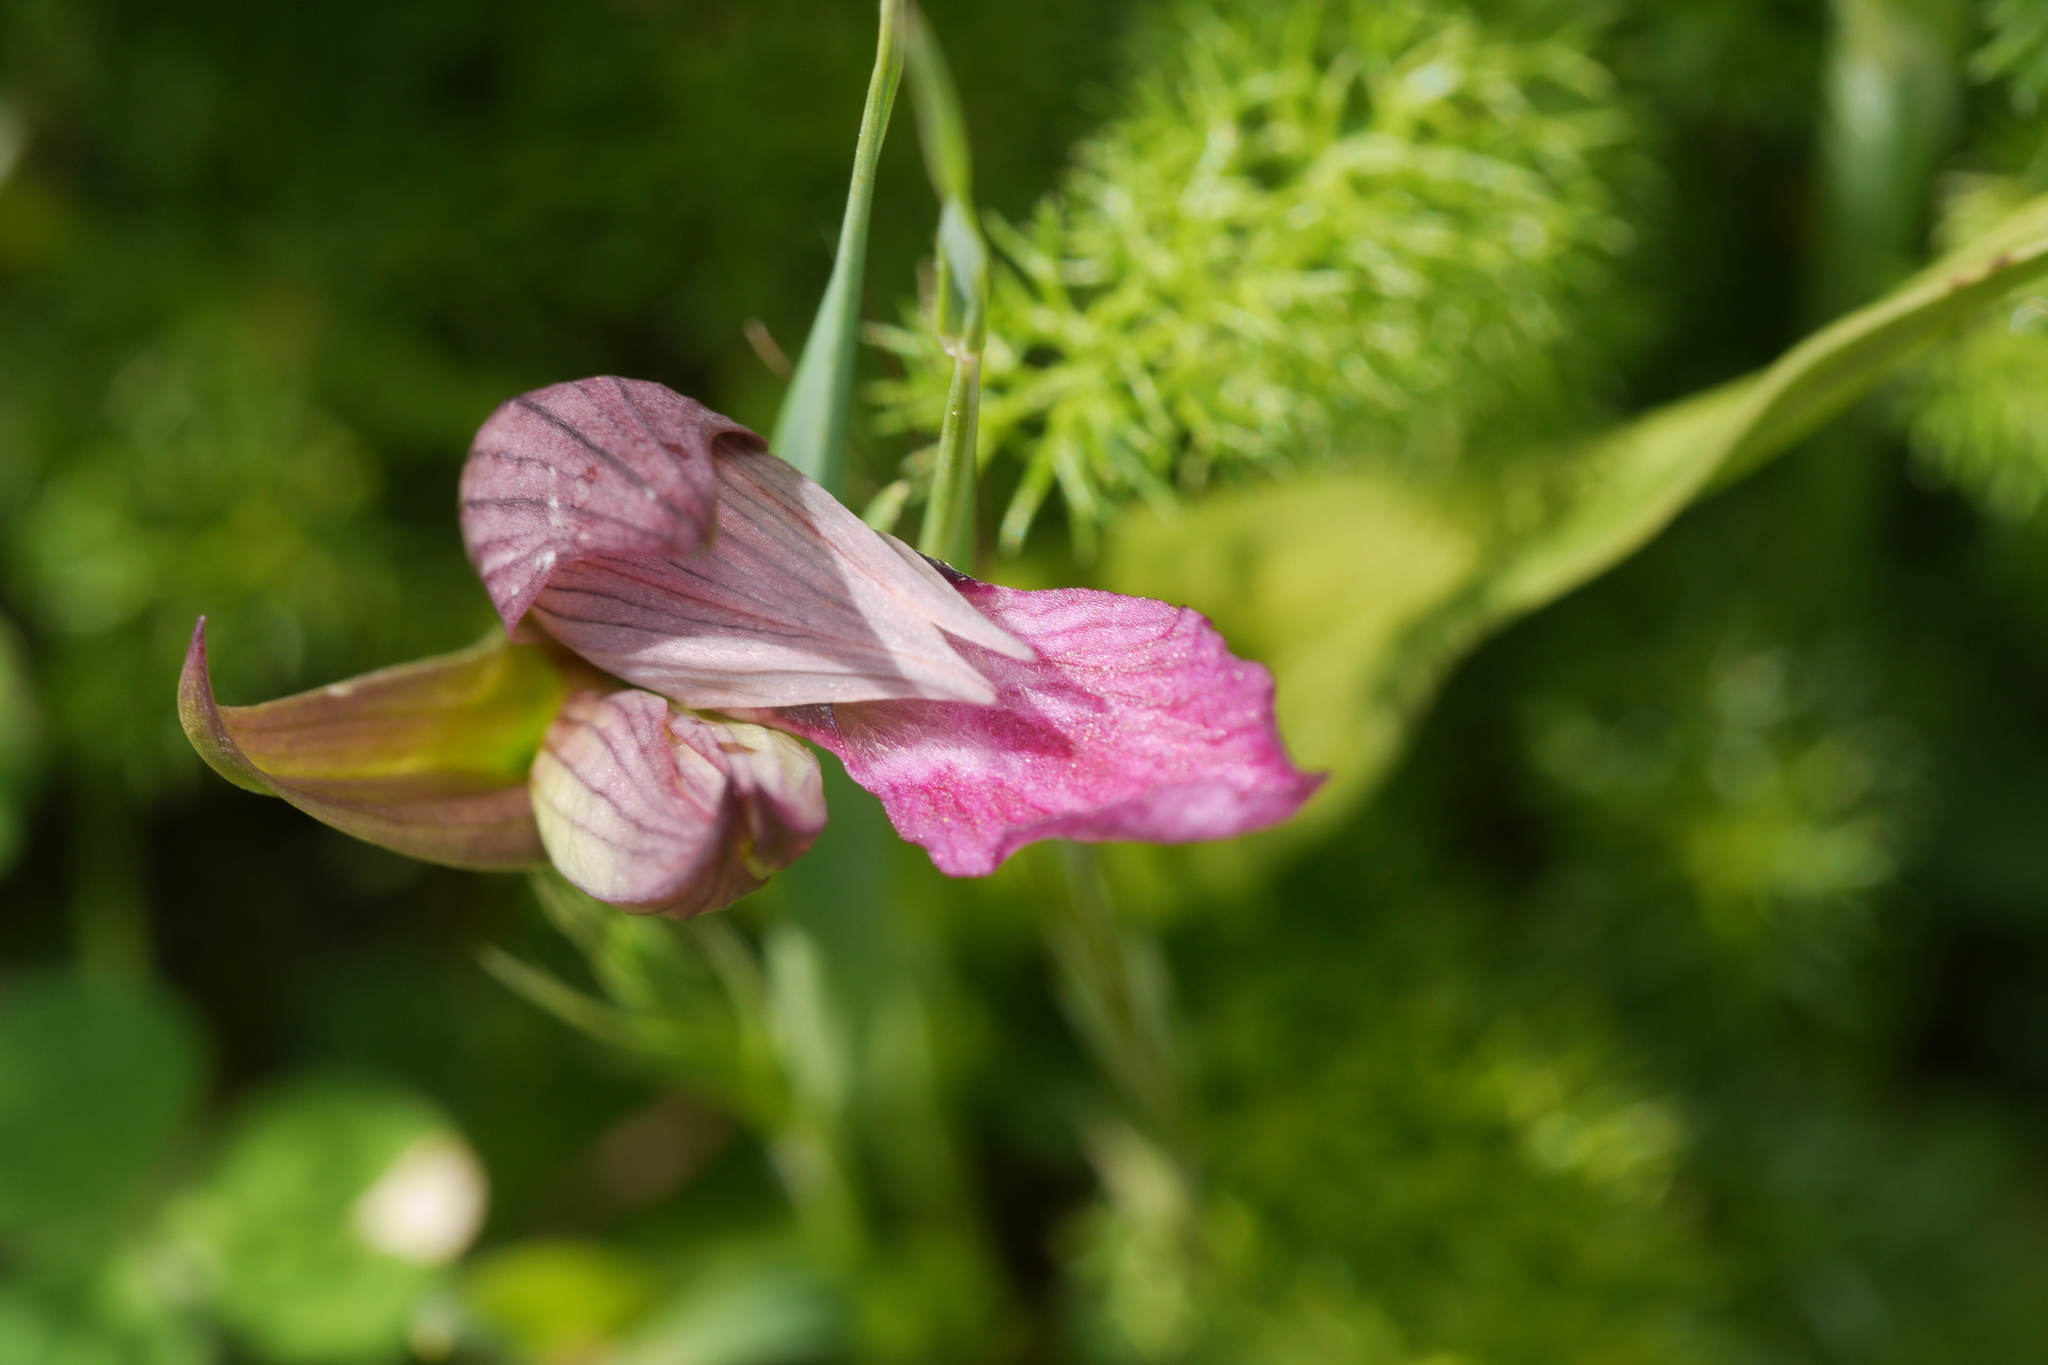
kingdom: Plantae
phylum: Tracheophyta
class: Liliopsida
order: Asparagales
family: Orchidaceae
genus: Serapias
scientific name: Serapias lingua
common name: Tongue-orchid
